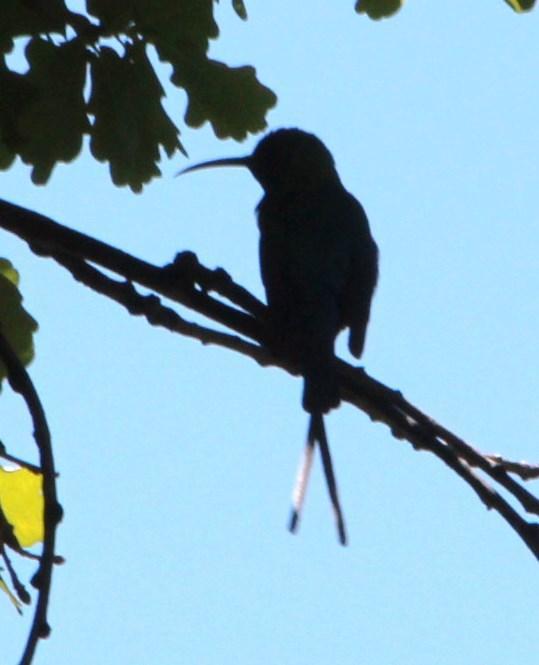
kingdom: Animalia
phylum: Chordata
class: Aves
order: Passeriformes
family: Nectariniidae
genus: Nectarinia
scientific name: Nectarinia famosa
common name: Malachite sunbird
